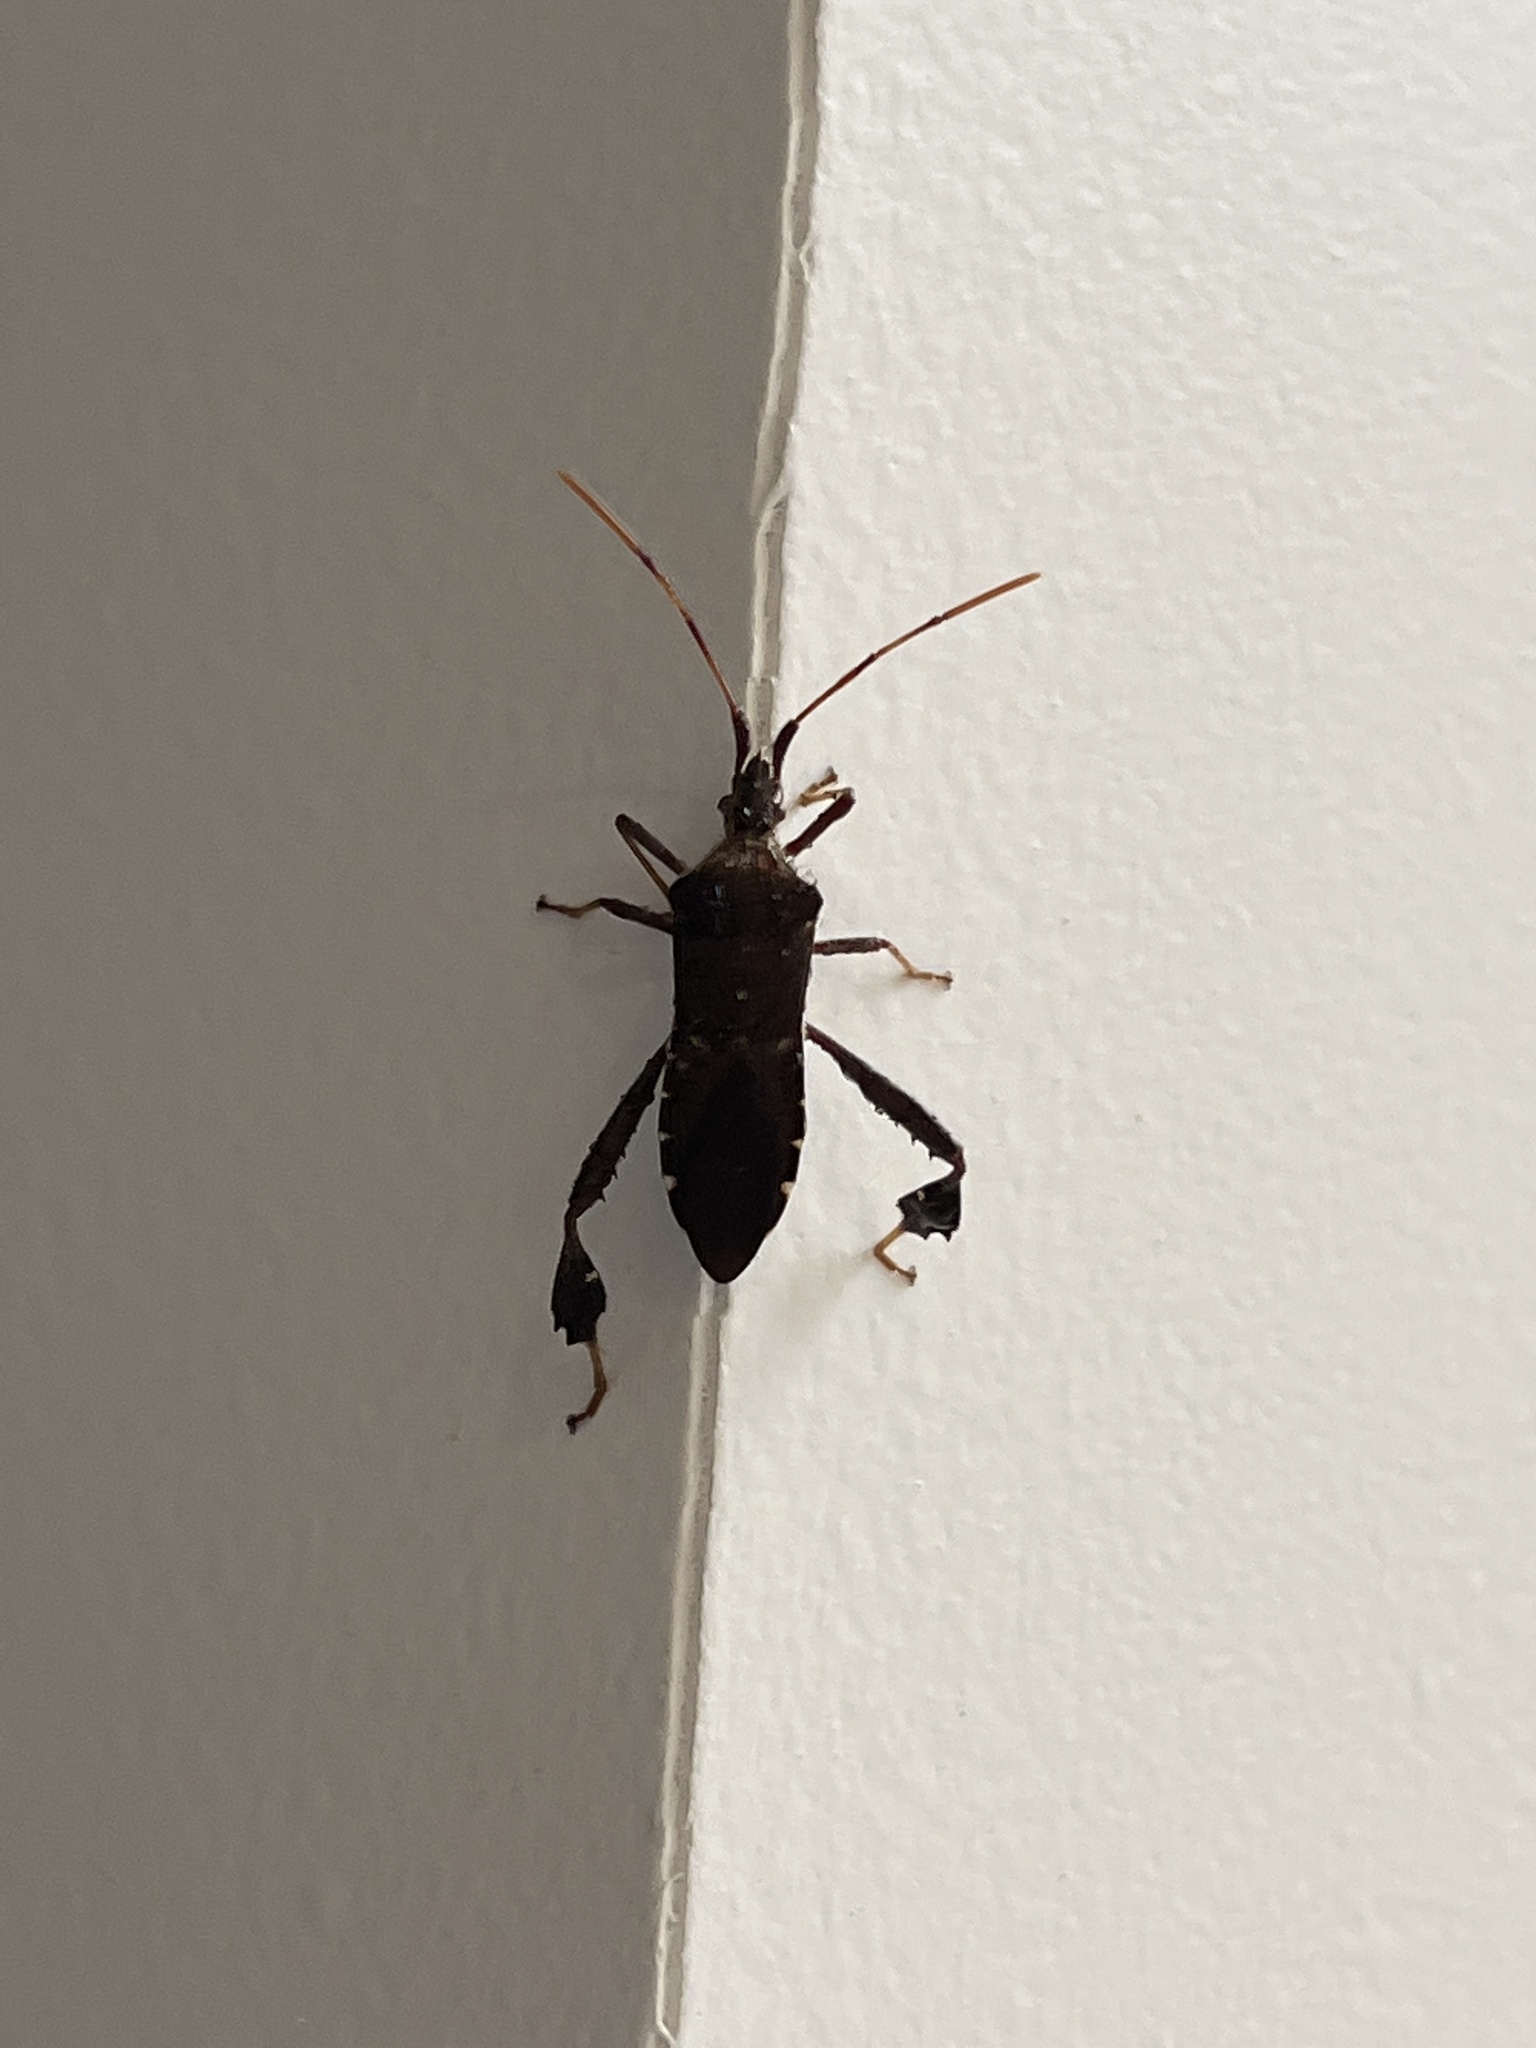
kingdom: Animalia
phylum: Arthropoda
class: Insecta
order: Hemiptera
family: Coreidae
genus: Leptoglossus
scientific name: Leptoglossus oppositus
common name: Northern leaf-footed bug
